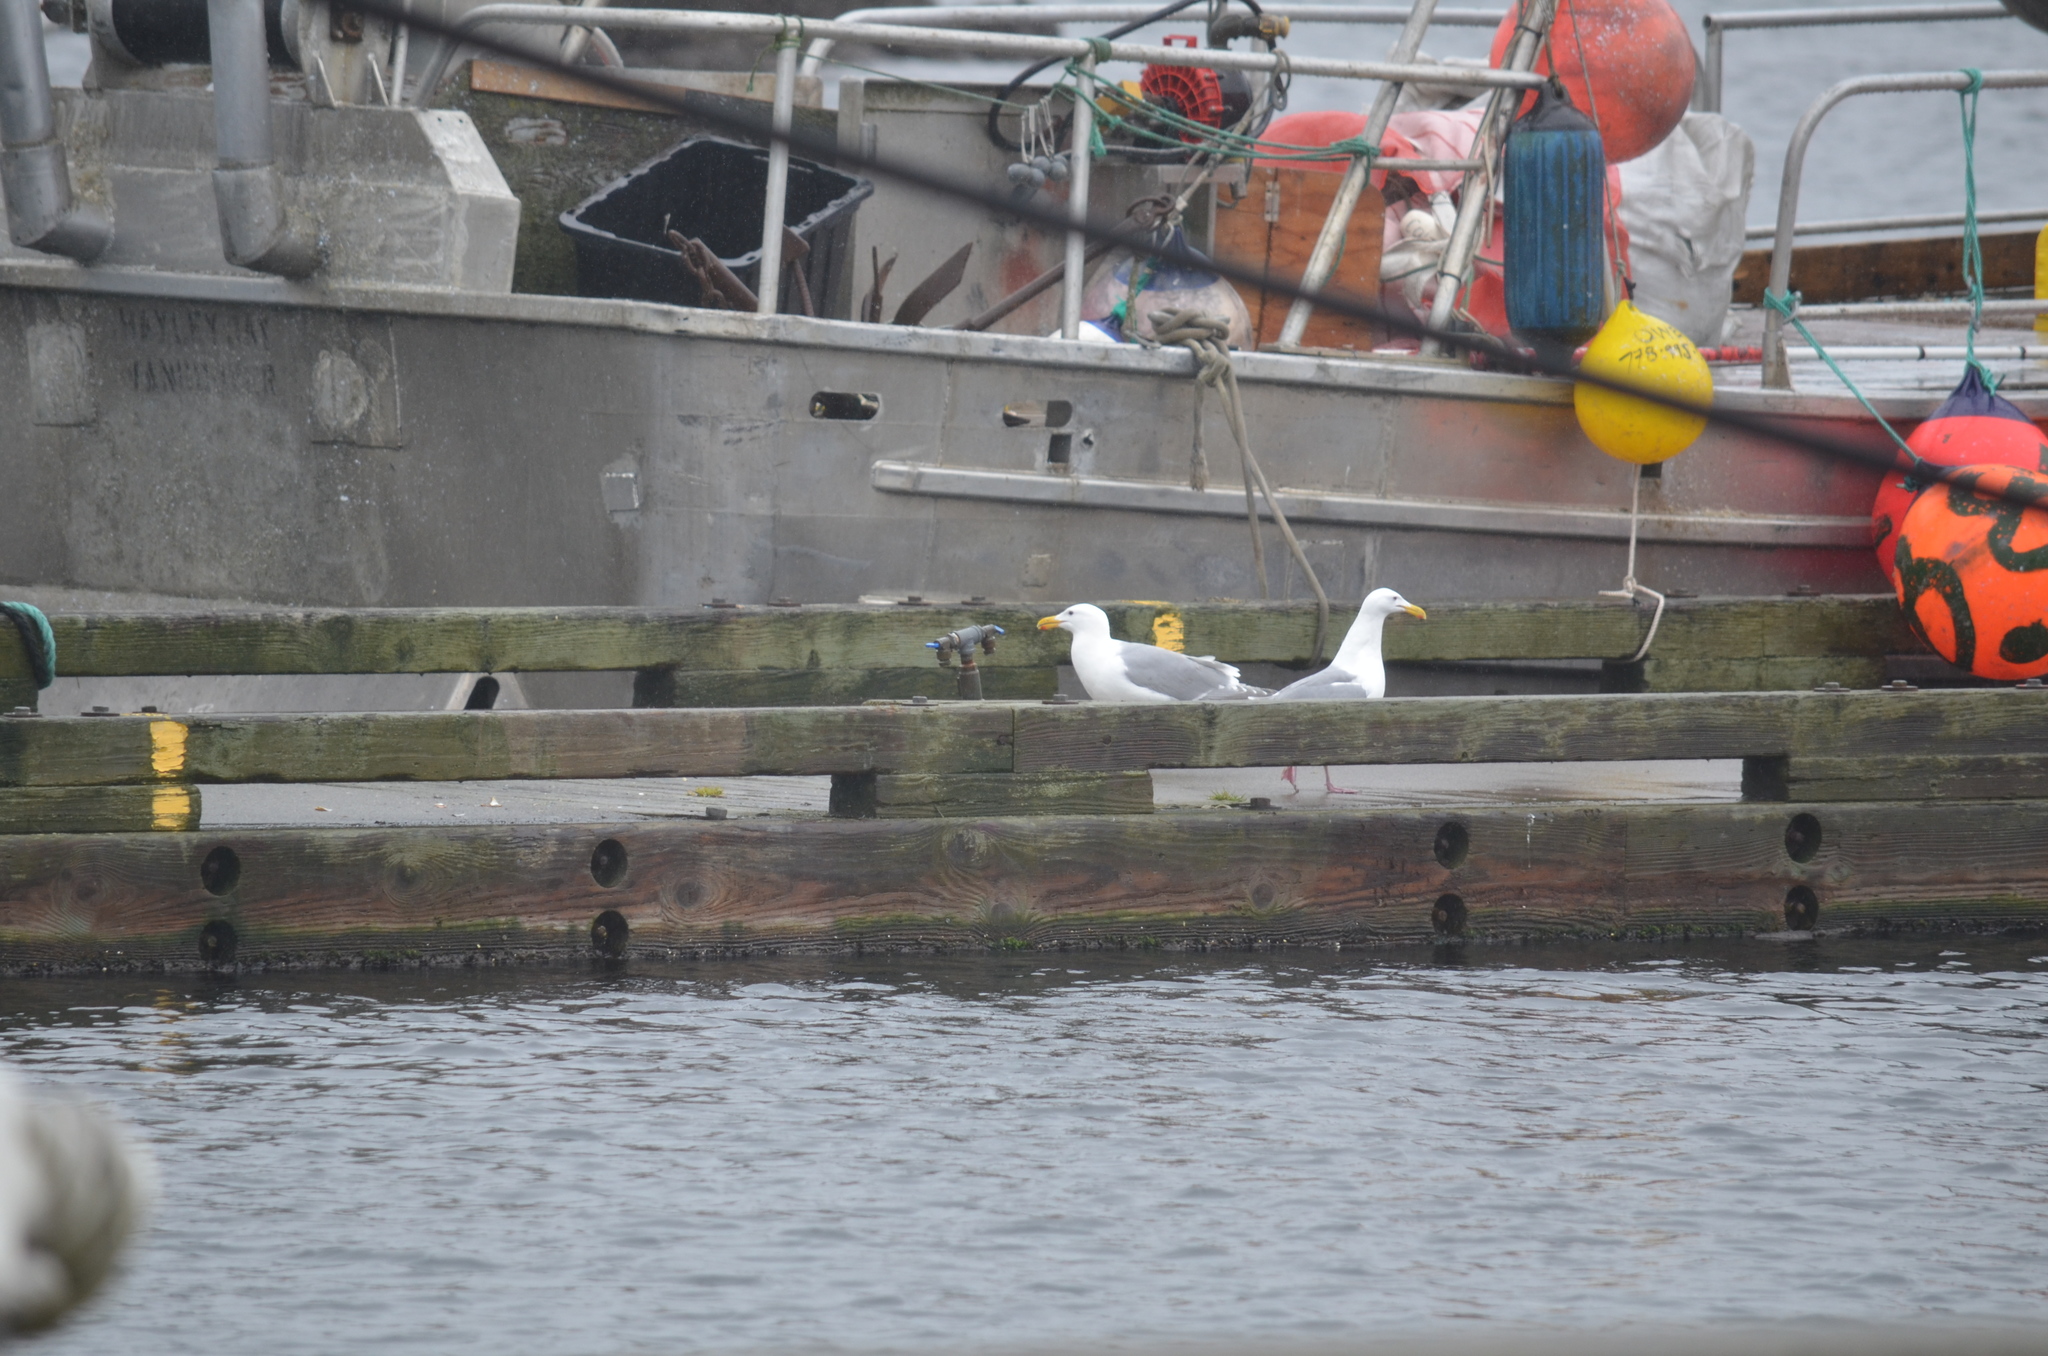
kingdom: Animalia
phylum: Chordata
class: Aves
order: Charadriiformes
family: Laridae
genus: Larus
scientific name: Larus glaucescens
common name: Glaucous-winged gull
